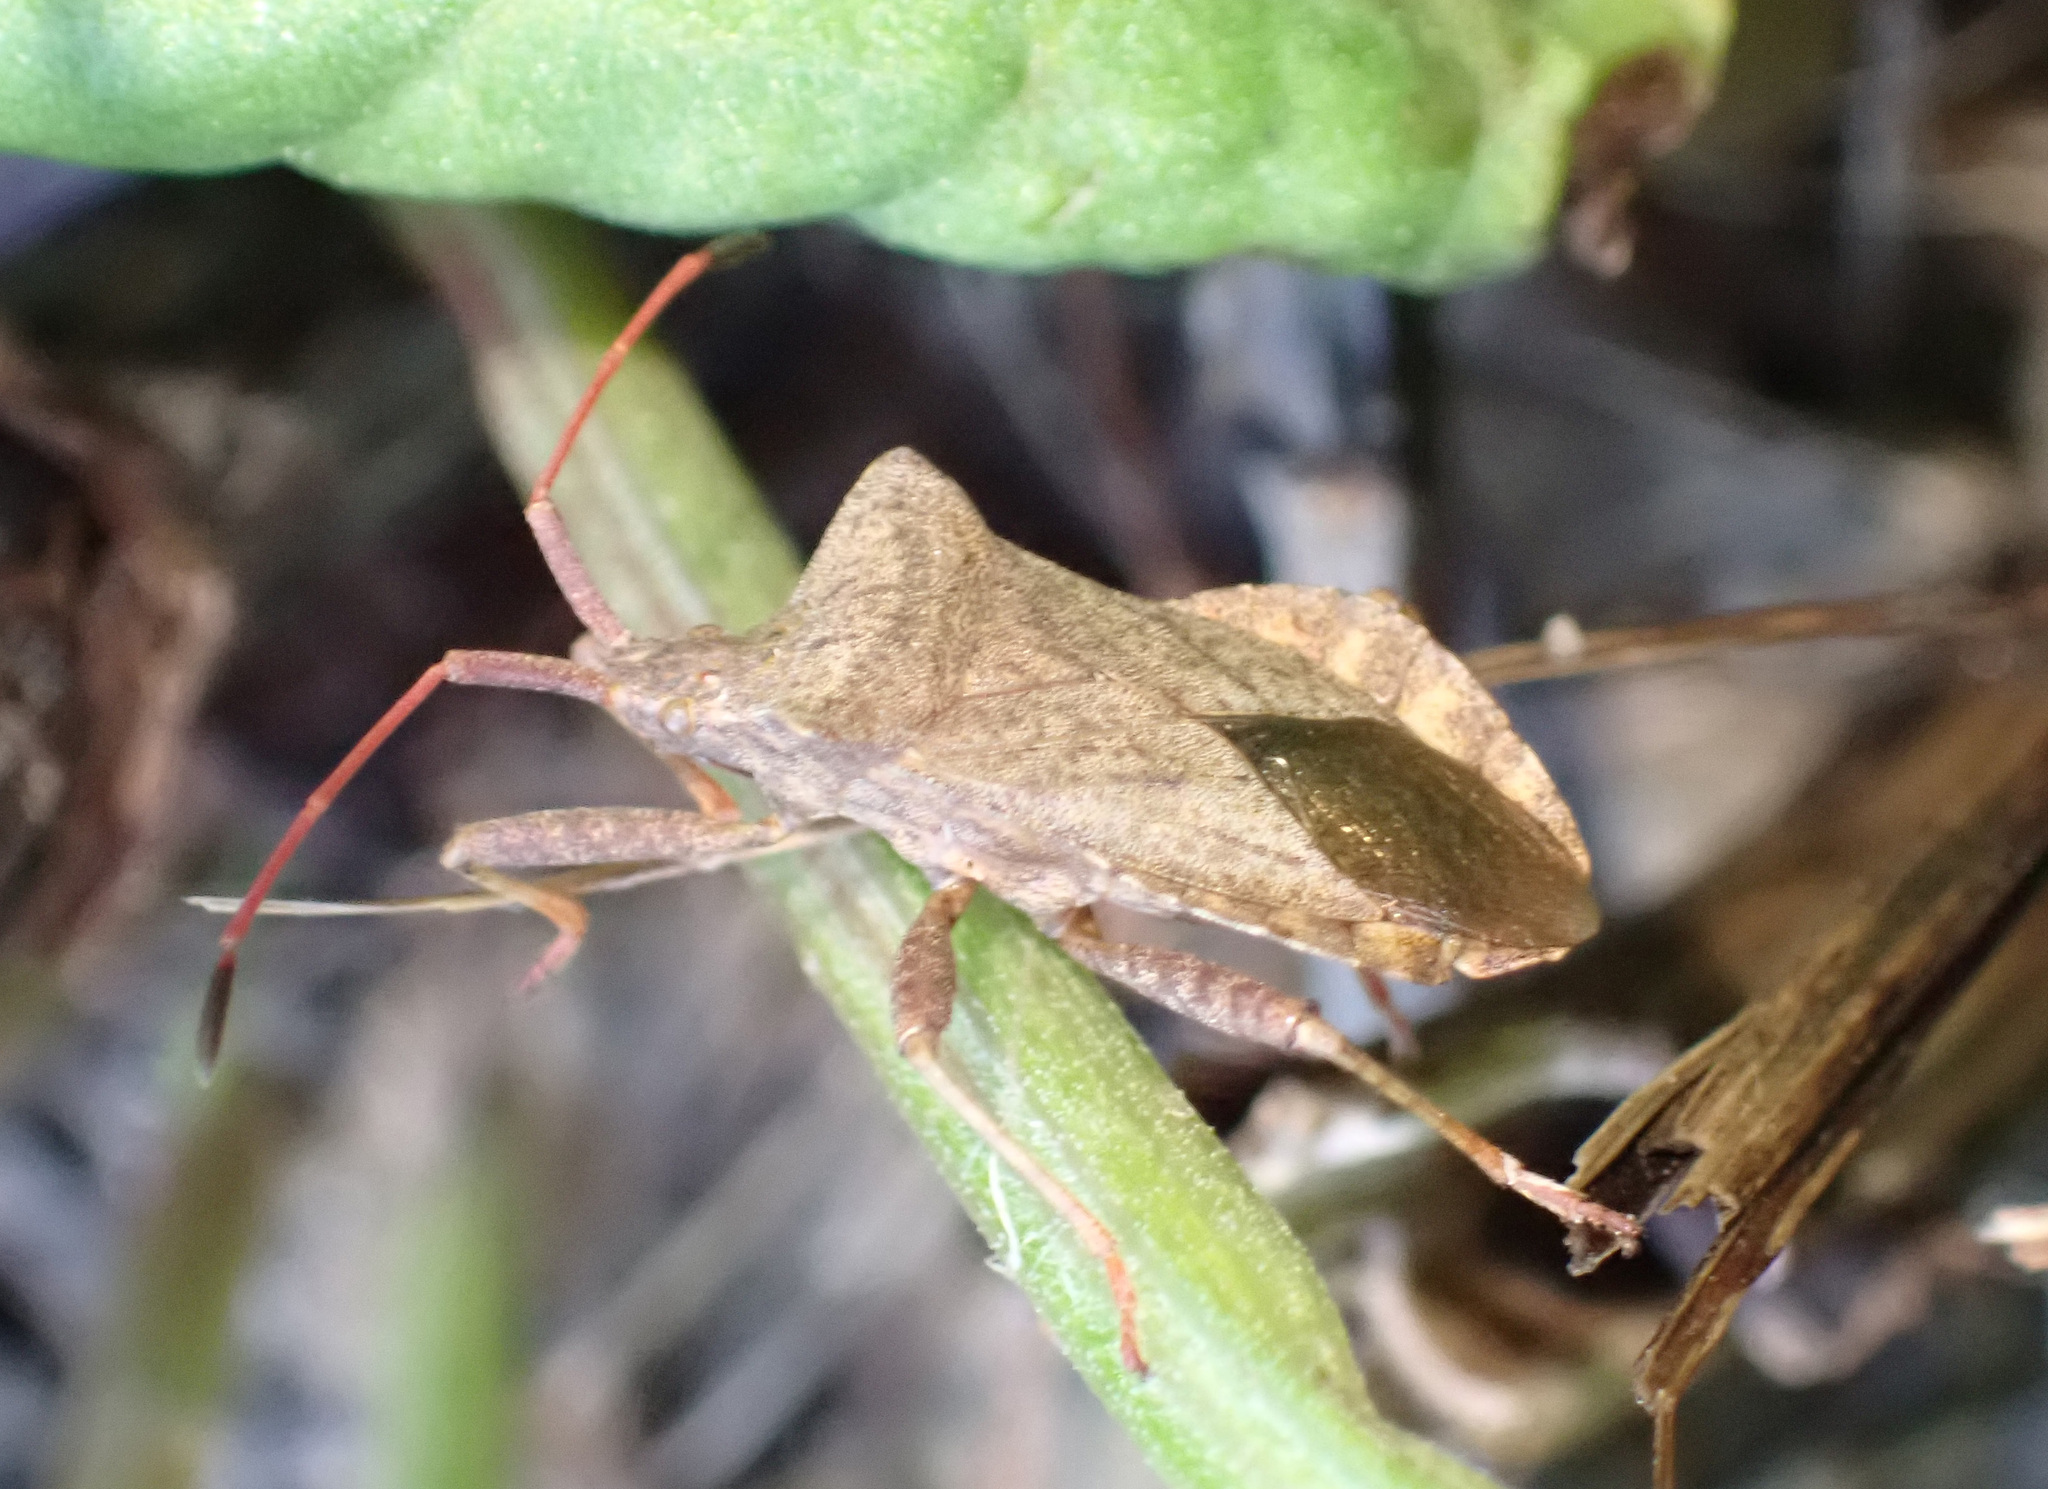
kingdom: Animalia
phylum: Arthropoda
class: Insecta
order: Hemiptera
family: Coreidae
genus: Coreus
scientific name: Coreus marginatus
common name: Dock bug
